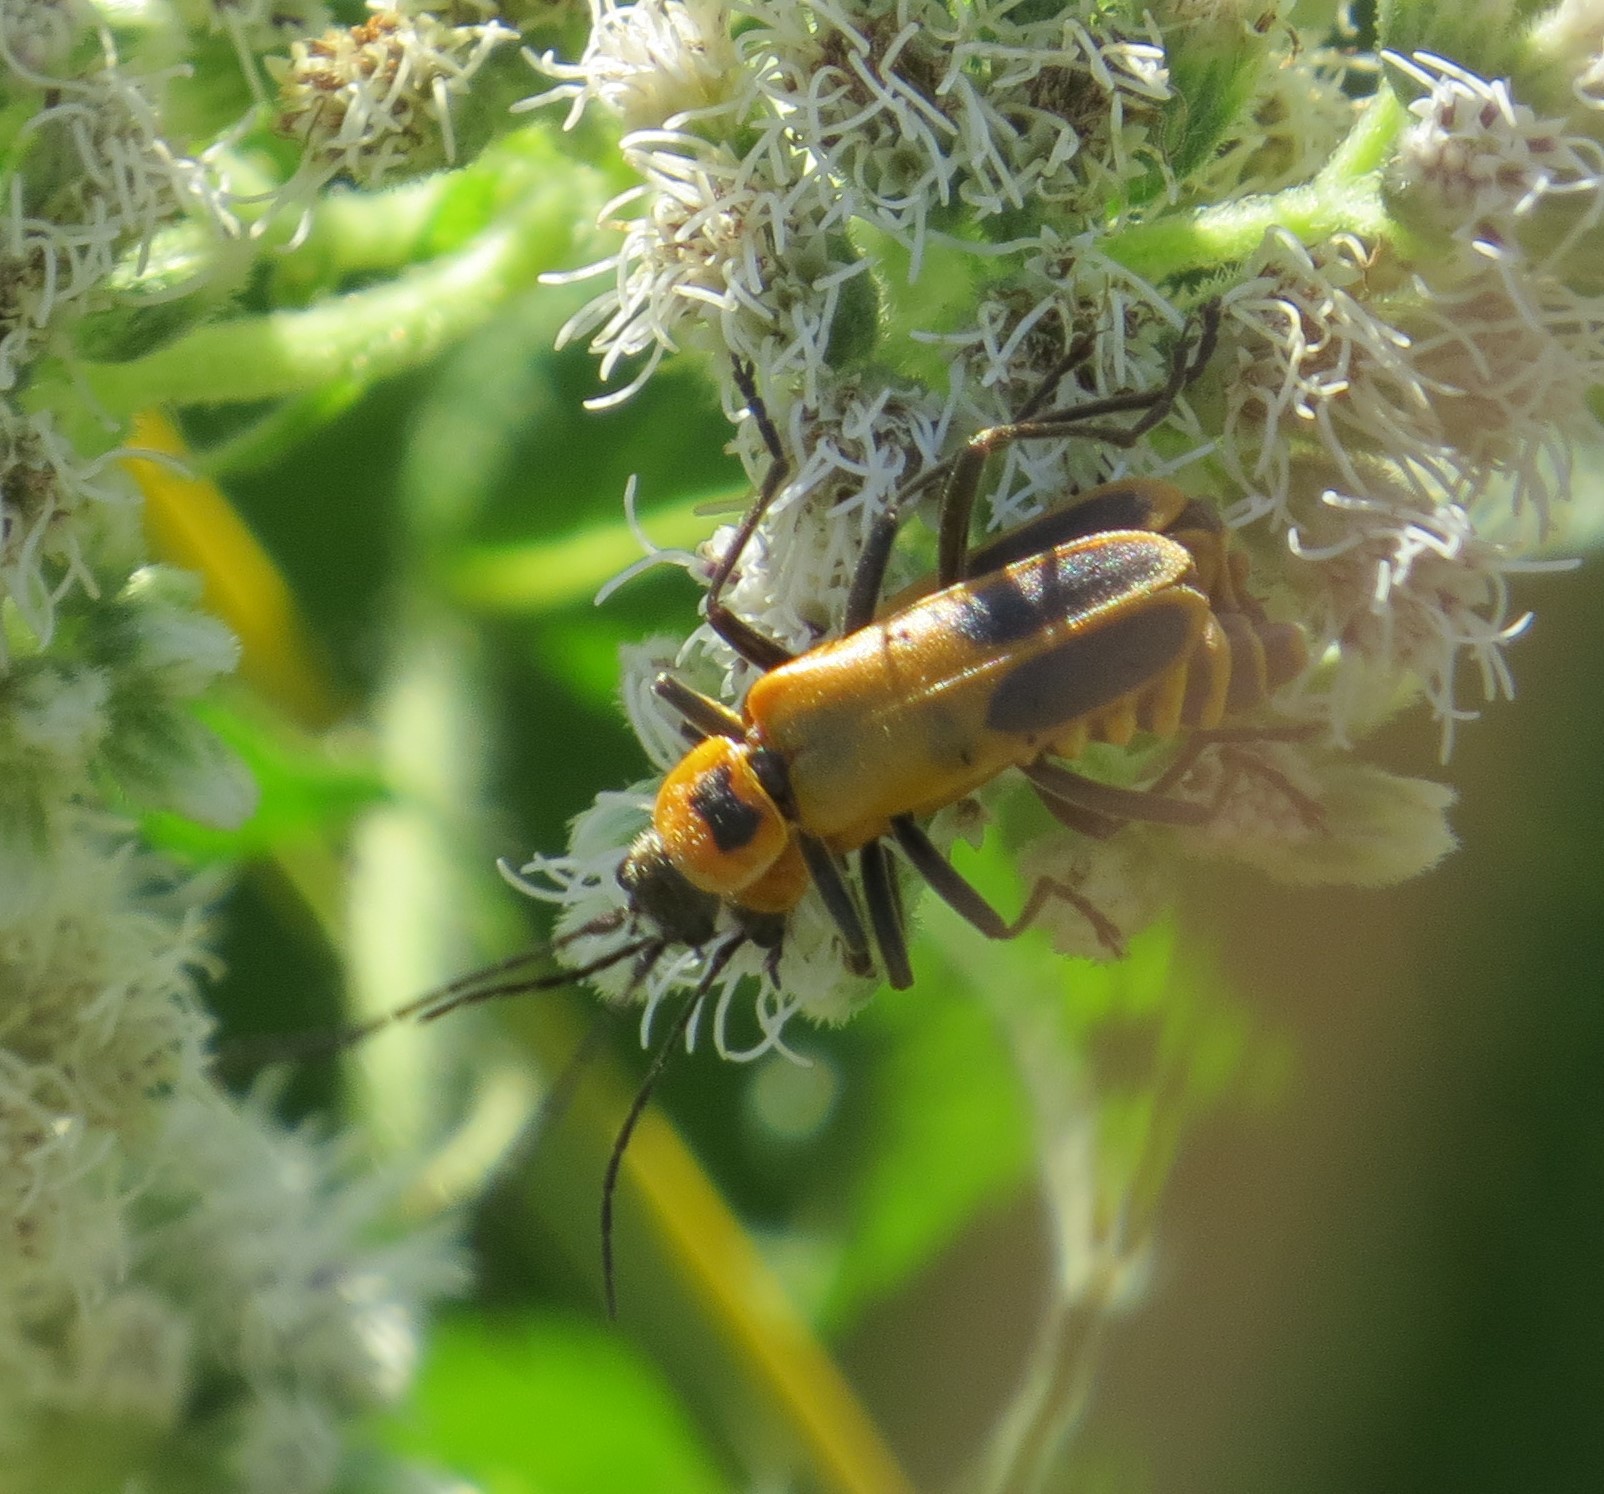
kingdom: Animalia
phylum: Arthropoda
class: Insecta
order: Coleoptera
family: Cantharidae
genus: Chauliognathus
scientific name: Chauliognathus pensylvanicus
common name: Goldenrod soldier beetle
